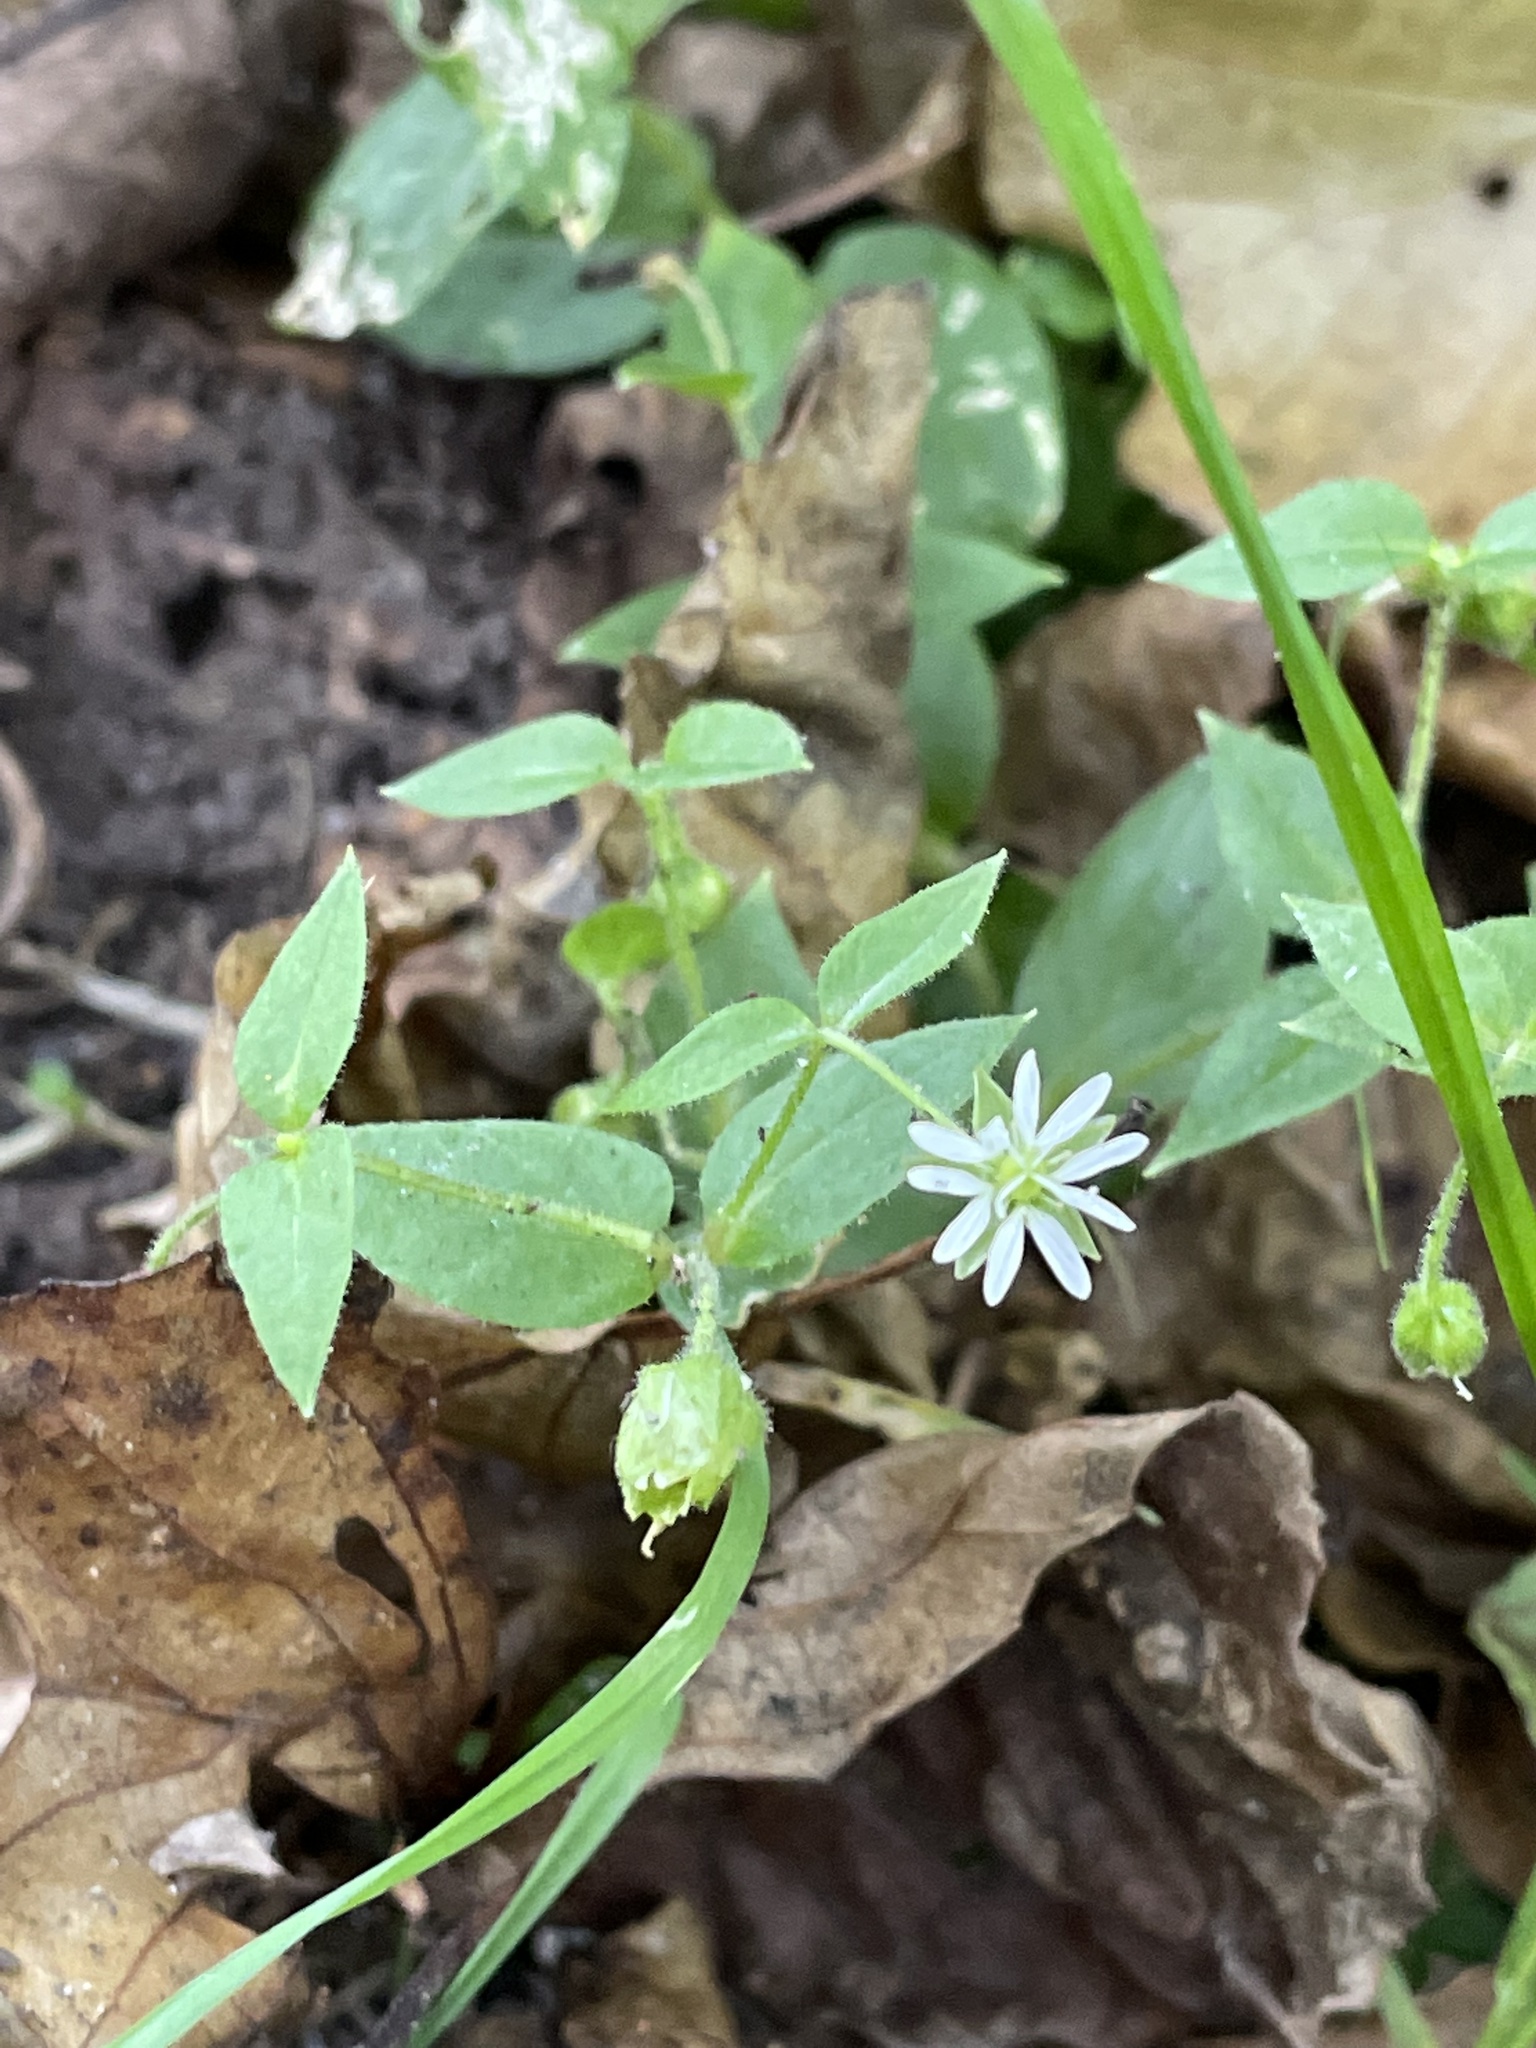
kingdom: Plantae
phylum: Tracheophyta
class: Magnoliopsida
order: Caryophyllales
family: Caryophyllaceae
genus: Stellaria
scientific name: Stellaria aquatica
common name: Water chickweed
